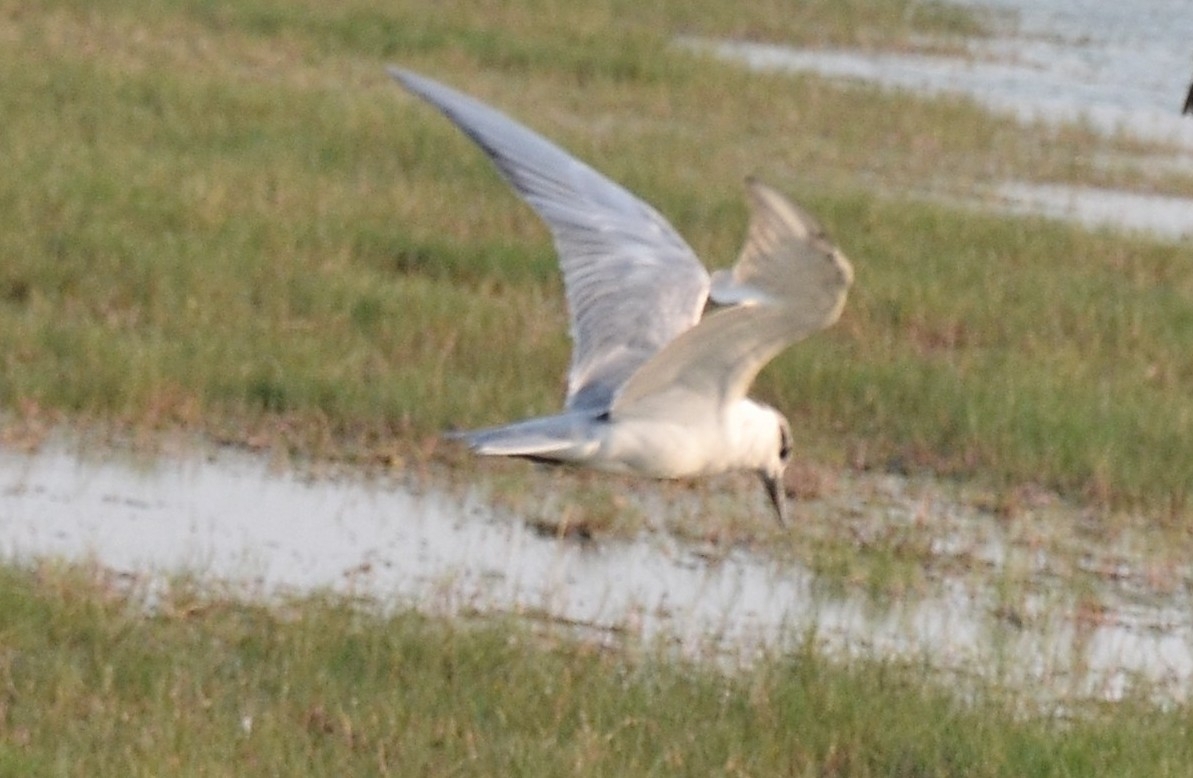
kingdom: Animalia
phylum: Chordata
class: Aves
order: Charadriiformes
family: Laridae
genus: Chlidonias
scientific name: Chlidonias hybrida
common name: Whiskered tern
